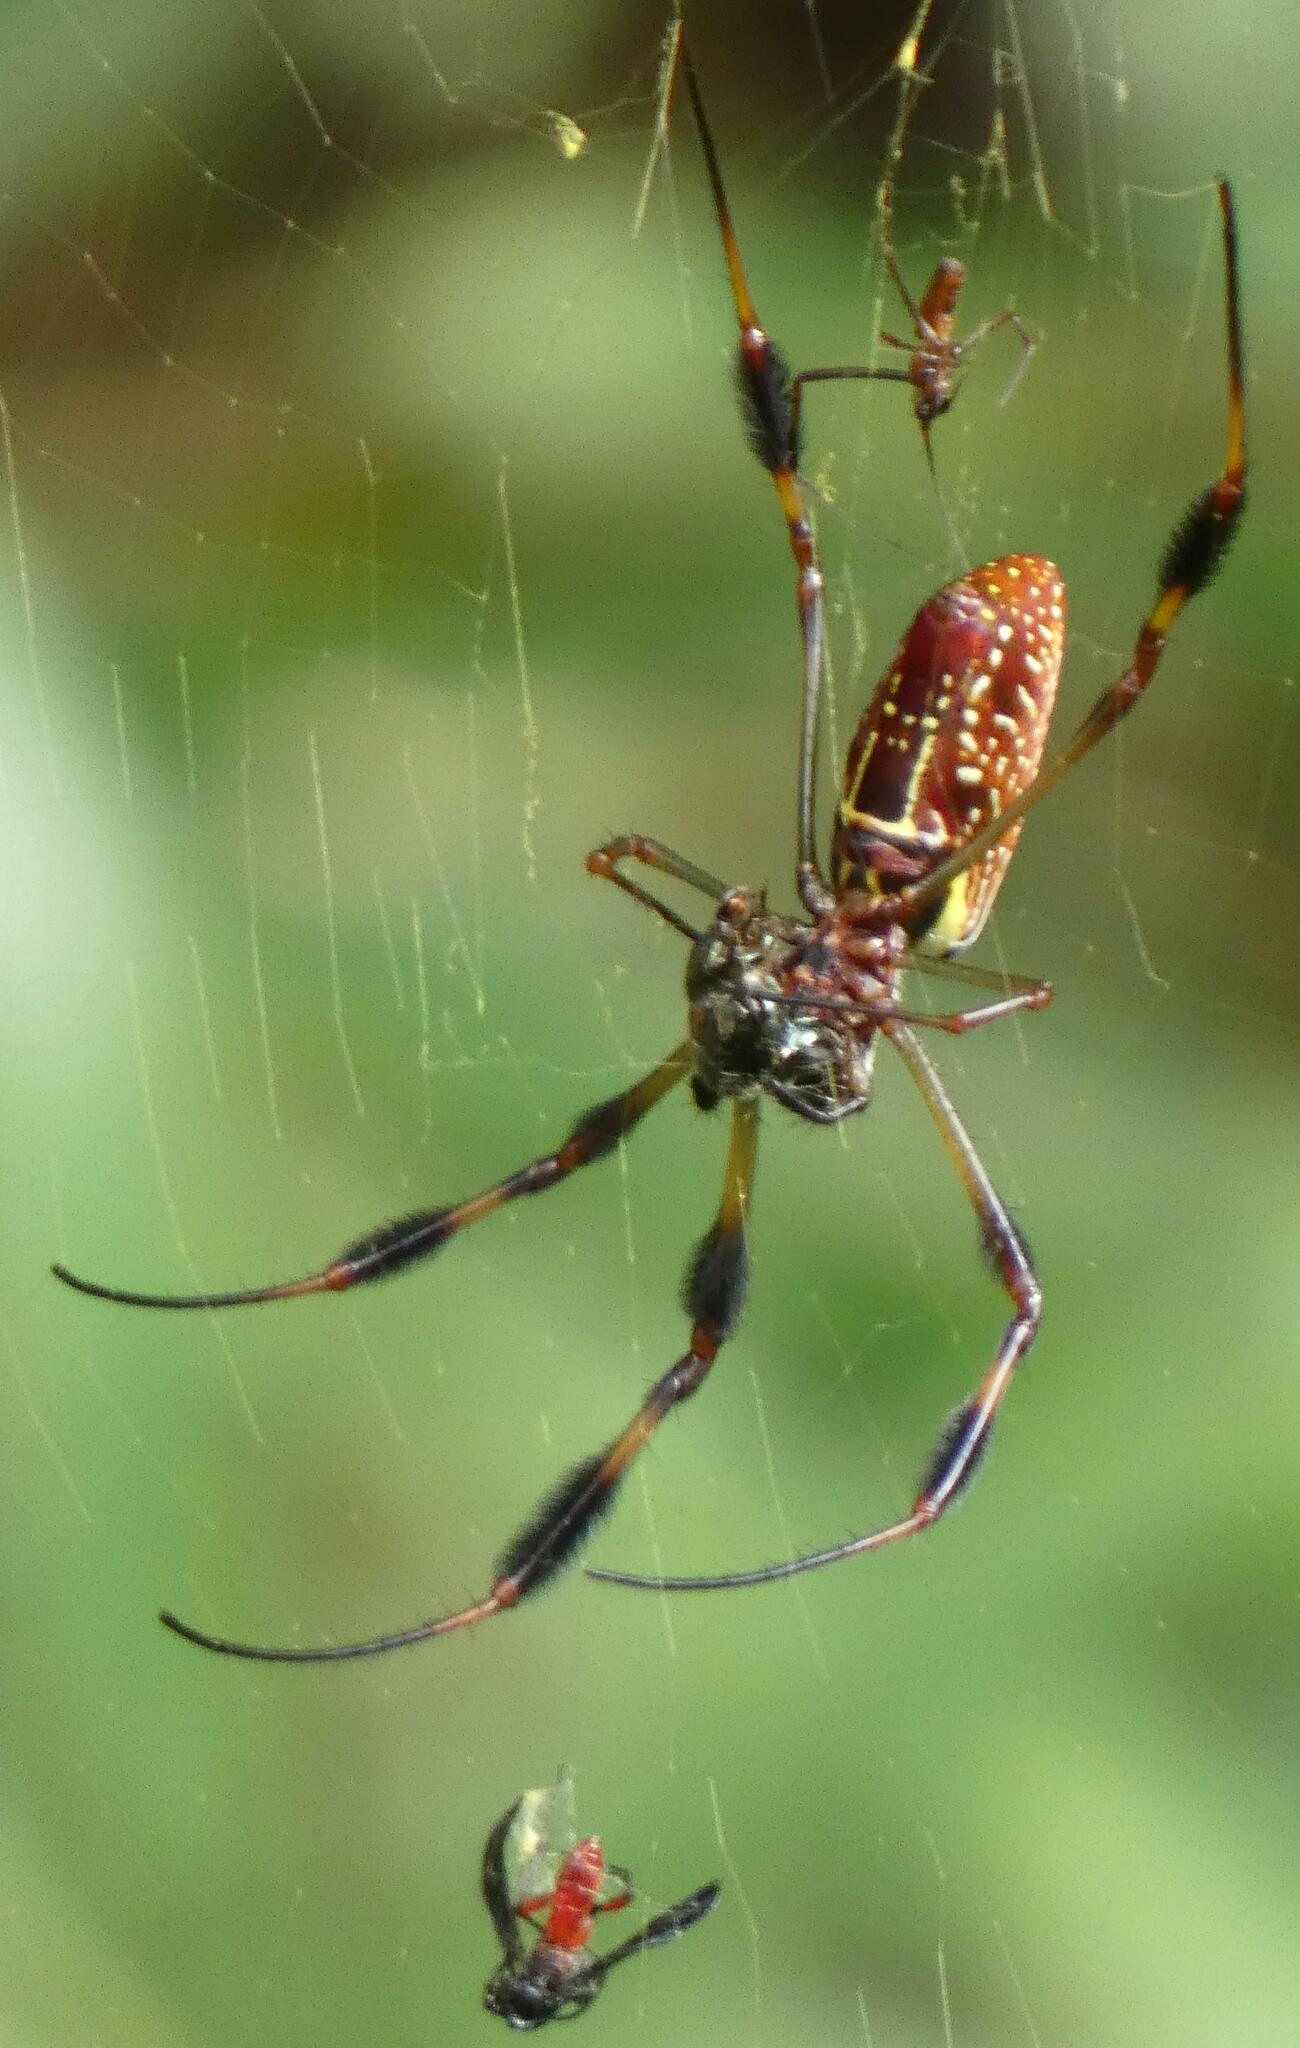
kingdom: Animalia
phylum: Arthropoda
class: Arachnida
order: Araneae
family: Araneidae
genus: Trichonephila
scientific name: Trichonephila clavipes
